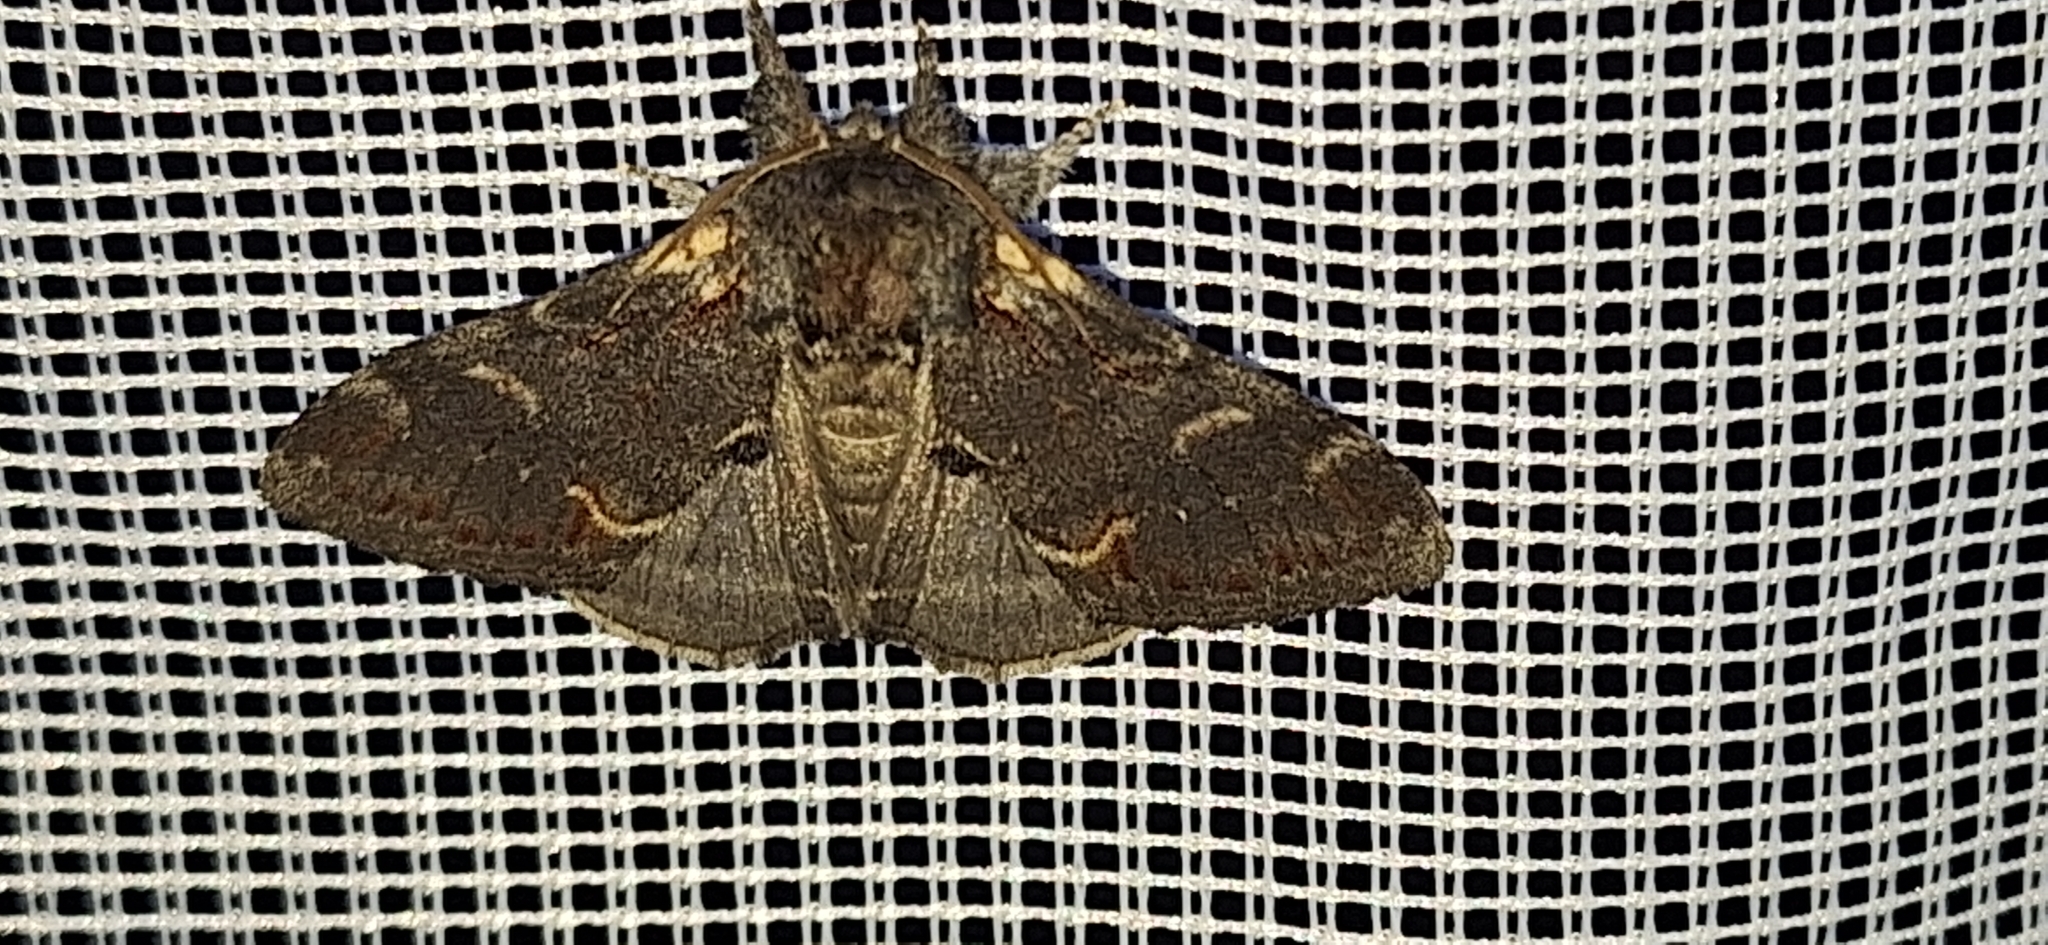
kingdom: Animalia
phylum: Arthropoda
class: Insecta
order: Lepidoptera
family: Notodontidae
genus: Notodonta
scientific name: Notodonta dromedarius
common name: Iron prominent
